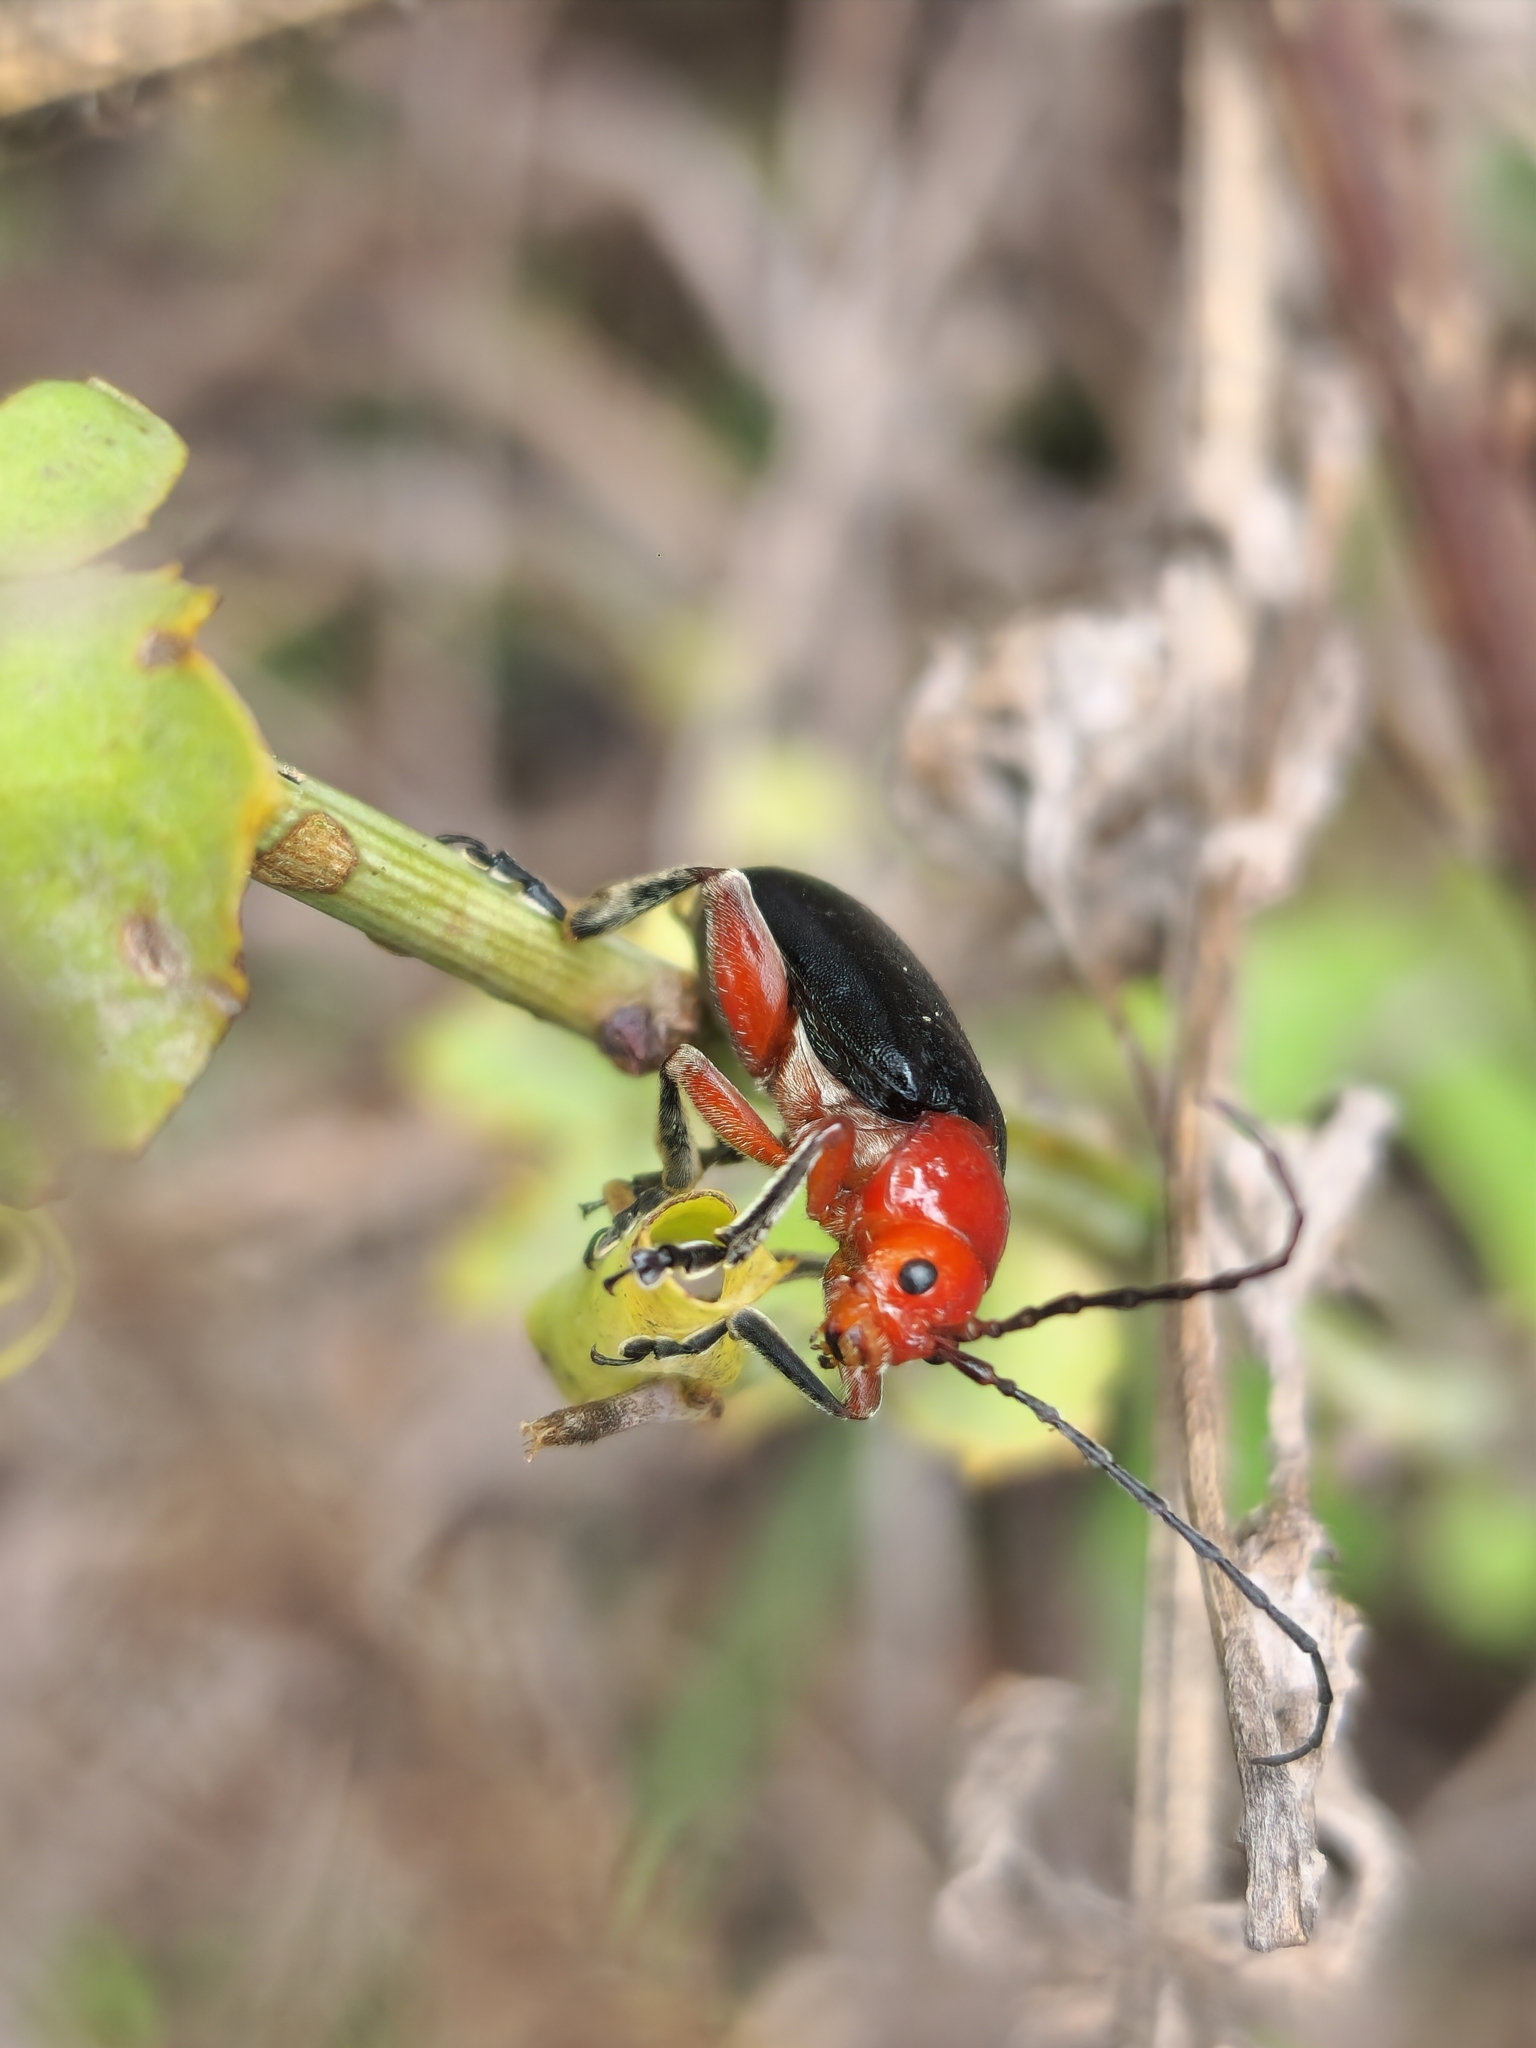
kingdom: Animalia
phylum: Arthropoda
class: Insecta
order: Coleoptera
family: Chrysomelidae
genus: Cacoscelis
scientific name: Cacoscelis
